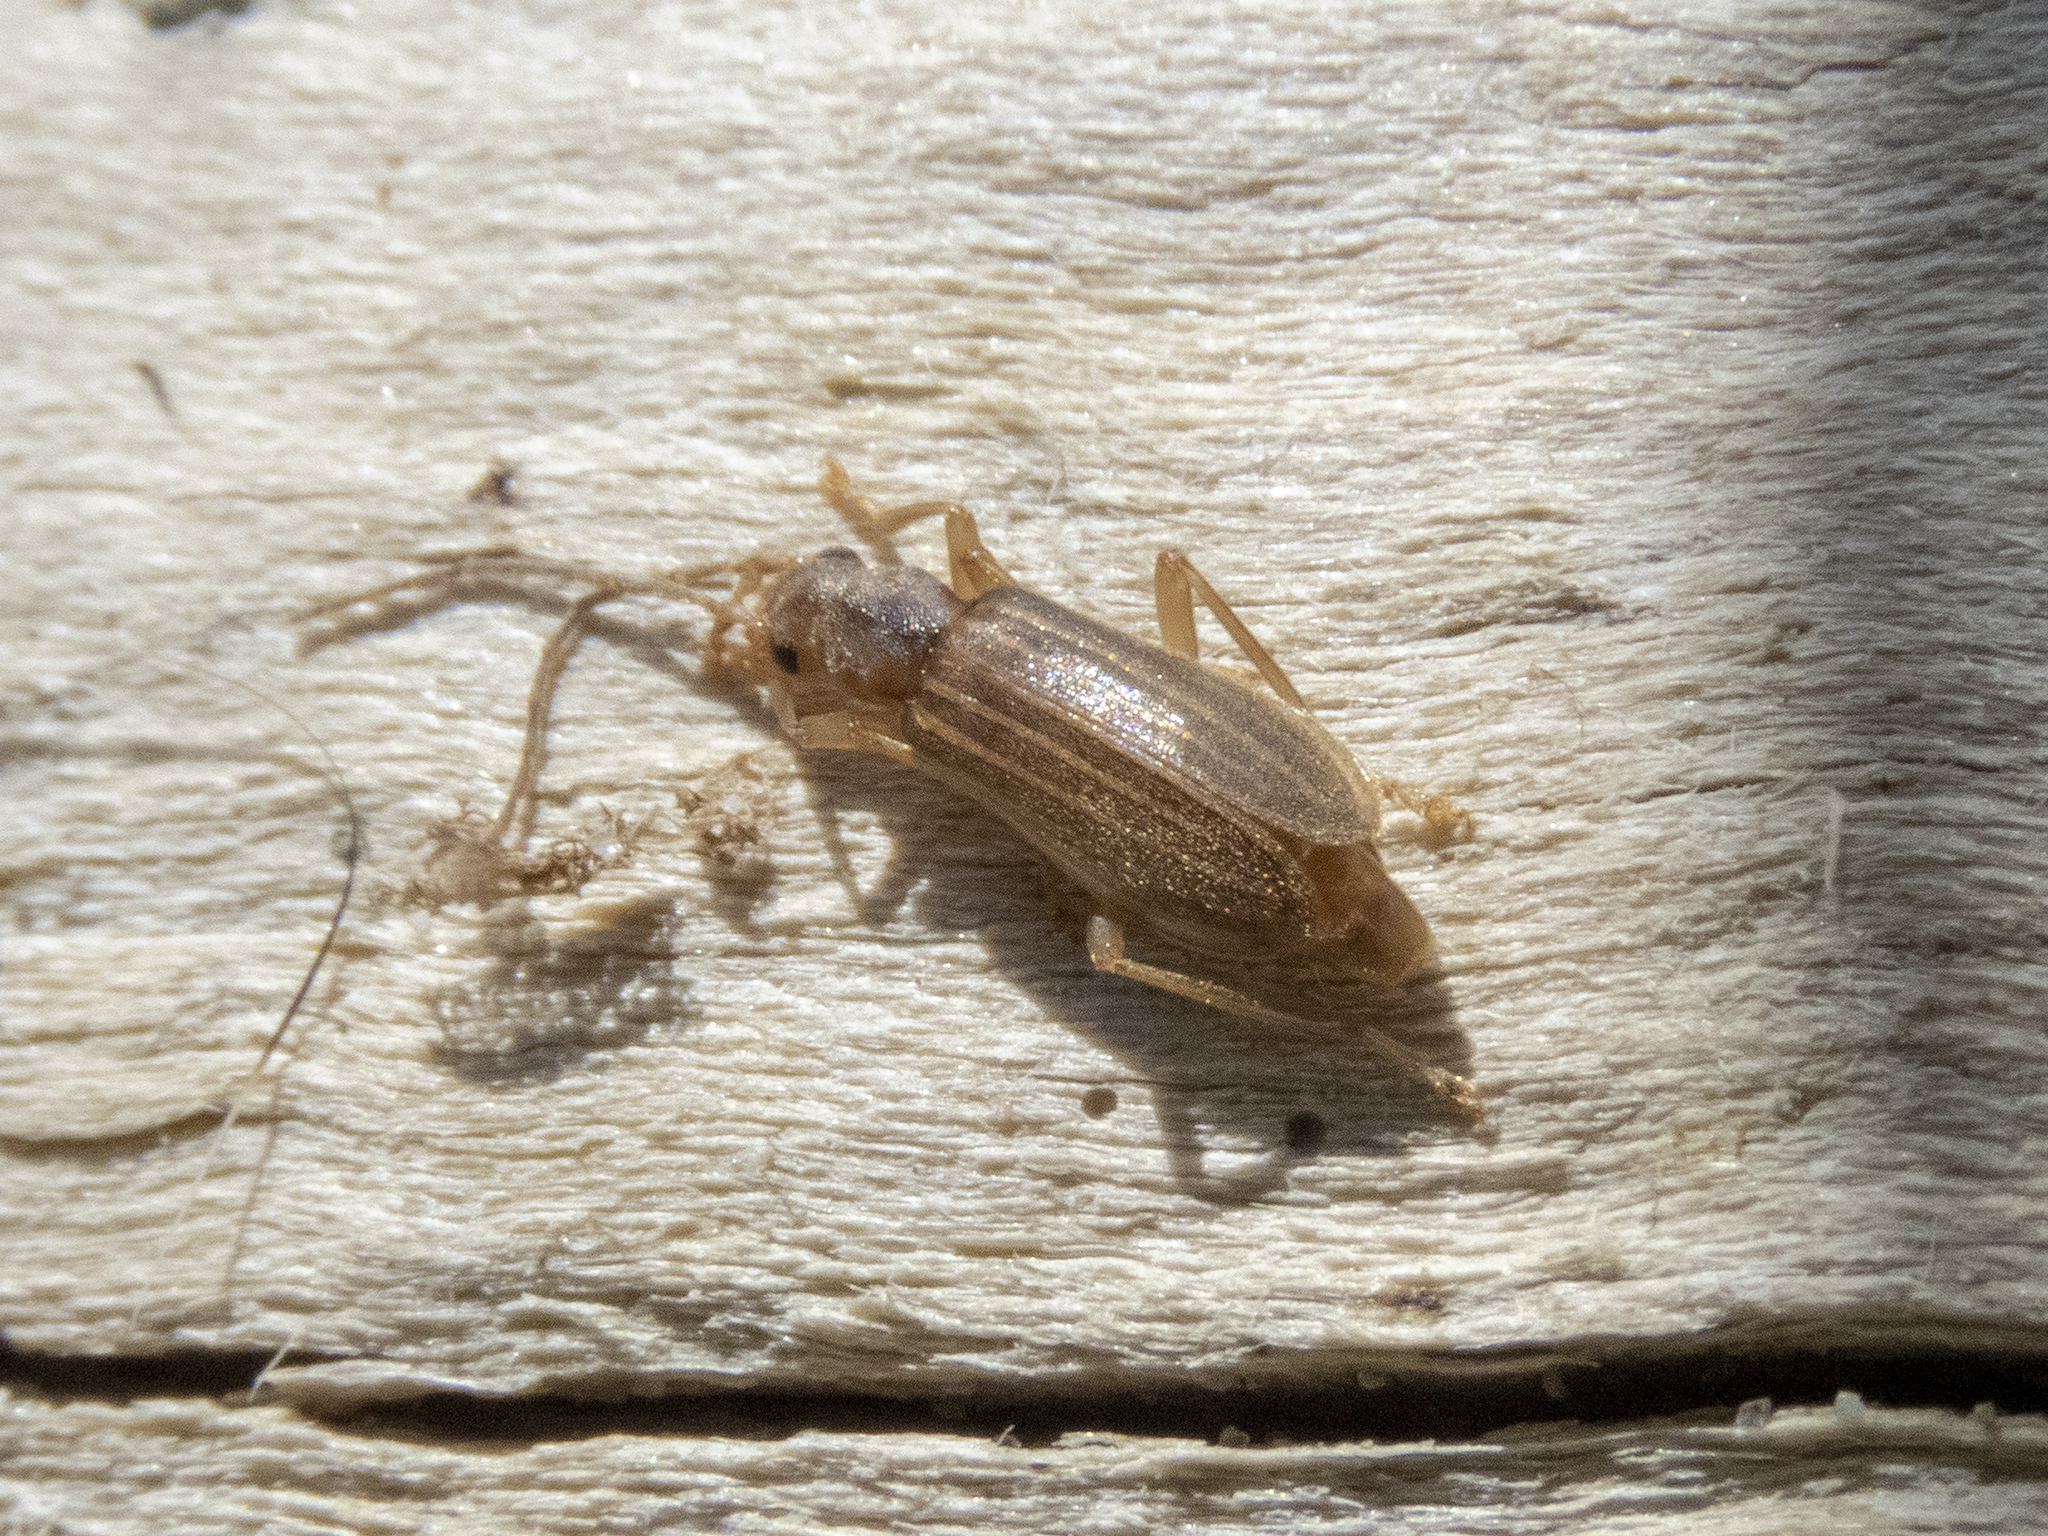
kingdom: Animalia
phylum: Arthropoda
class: Insecta
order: Coleoptera
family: Oedemeridae
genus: Thelyphassa
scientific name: Thelyphassa brouni
